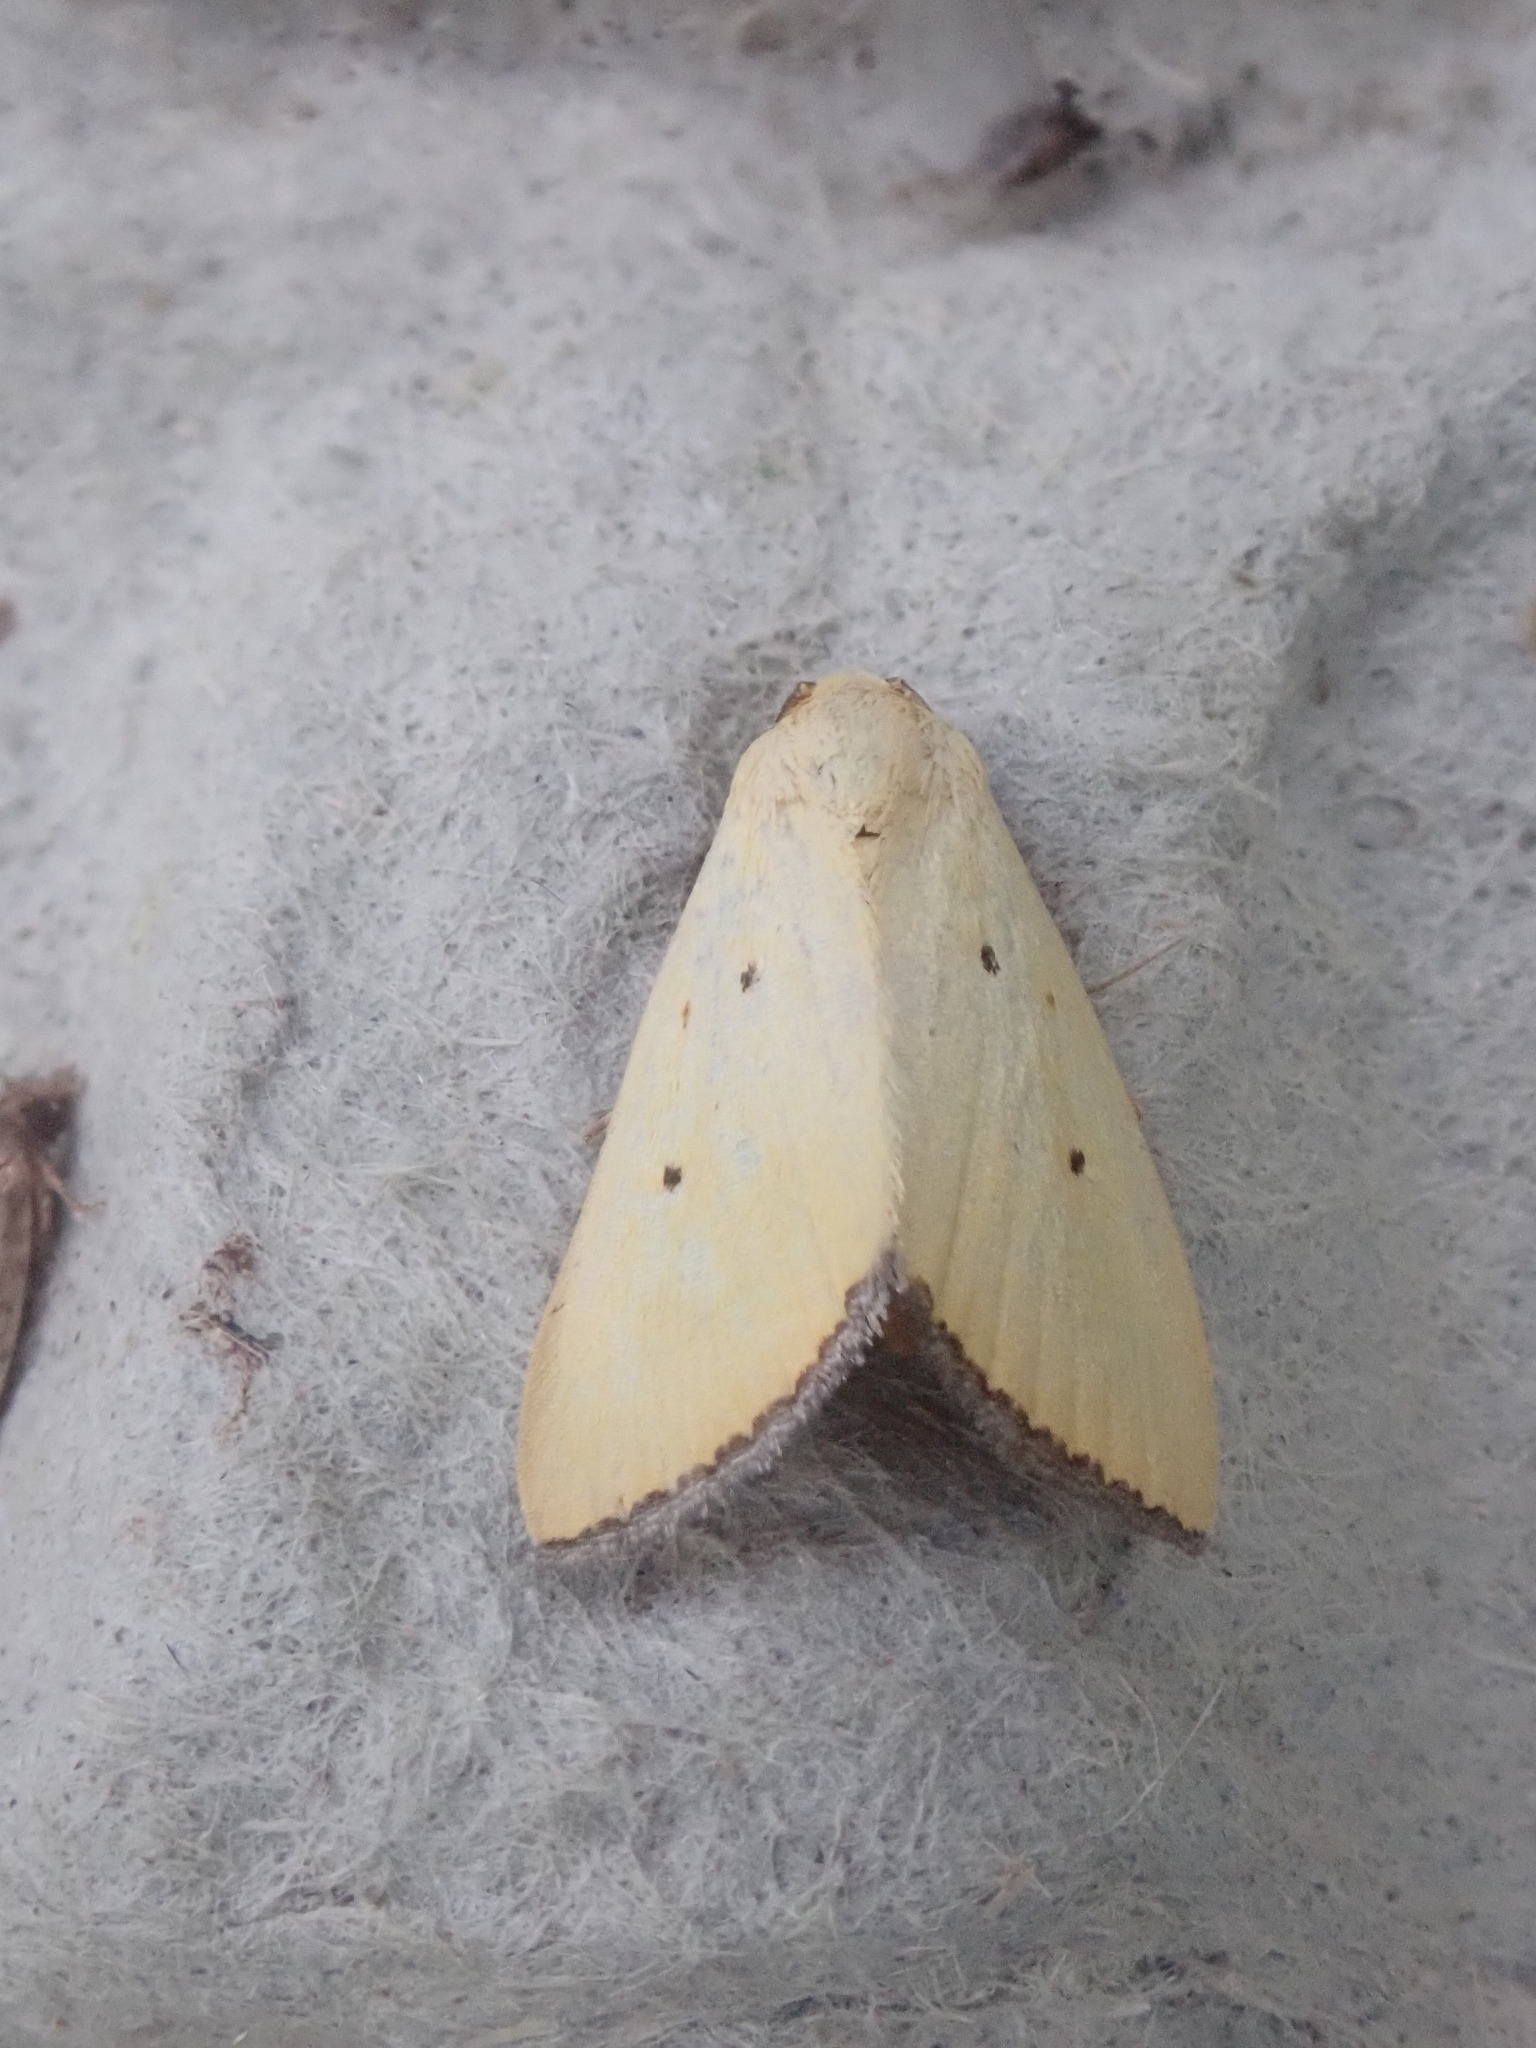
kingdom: Animalia
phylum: Arthropoda
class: Insecta
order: Lepidoptera
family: Noctuidae
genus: Marimatha
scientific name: Marimatha nigrofimbria
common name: Black-bordered lemon moth
